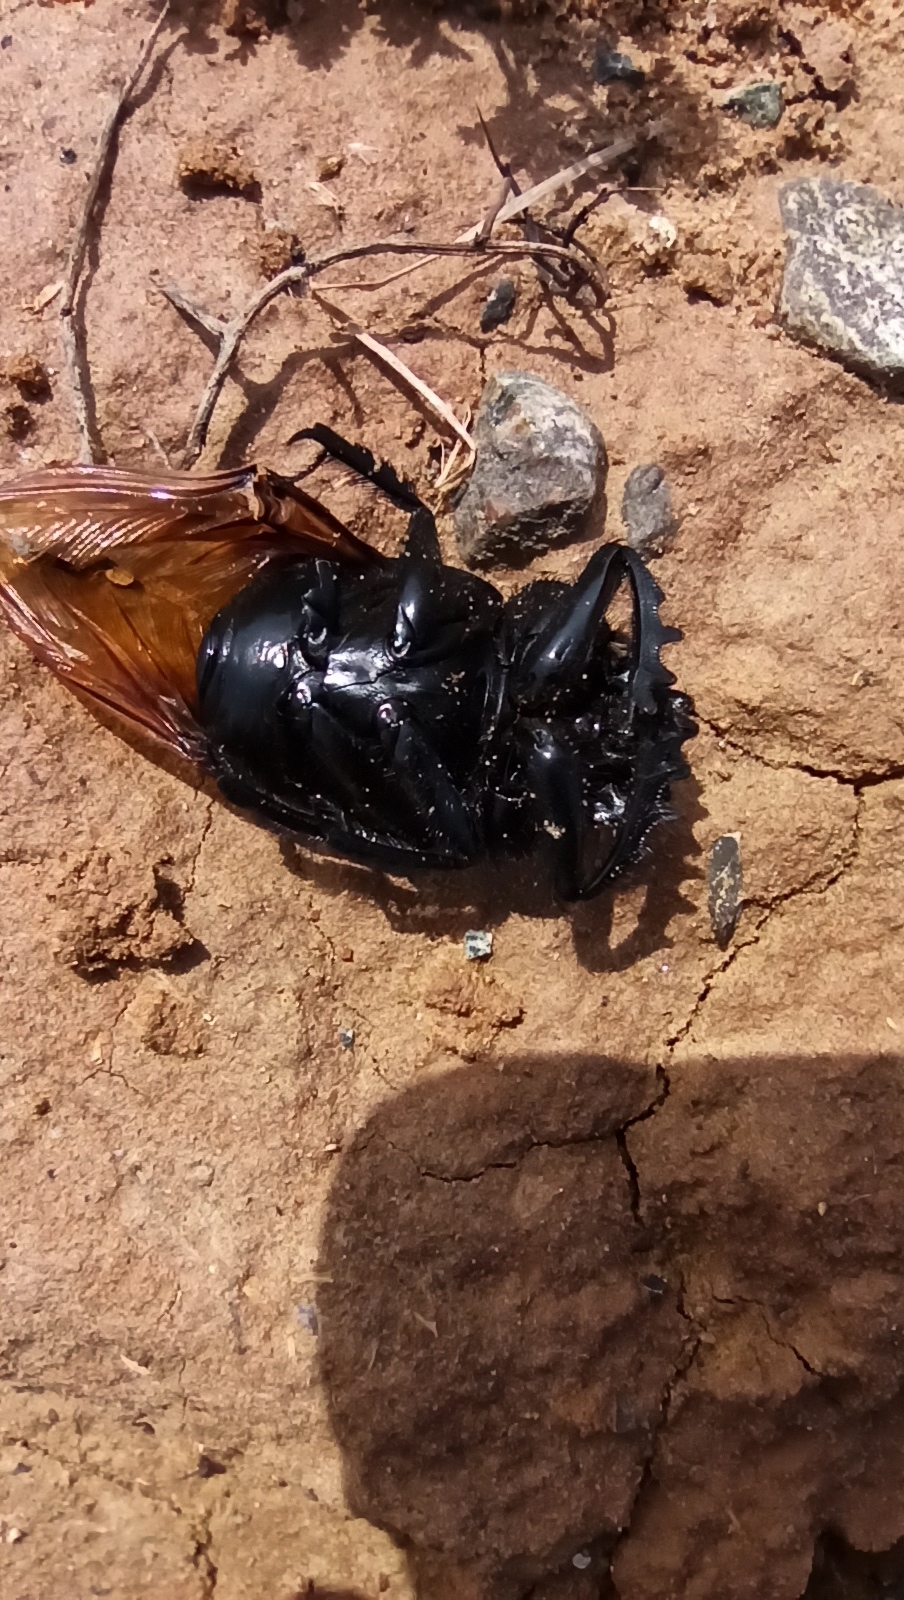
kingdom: Animalia
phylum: Arthropoda
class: Insecta
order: Coleoptera
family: Scarabaeidae
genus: Scarabaeus
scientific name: Scarabaeus pius
